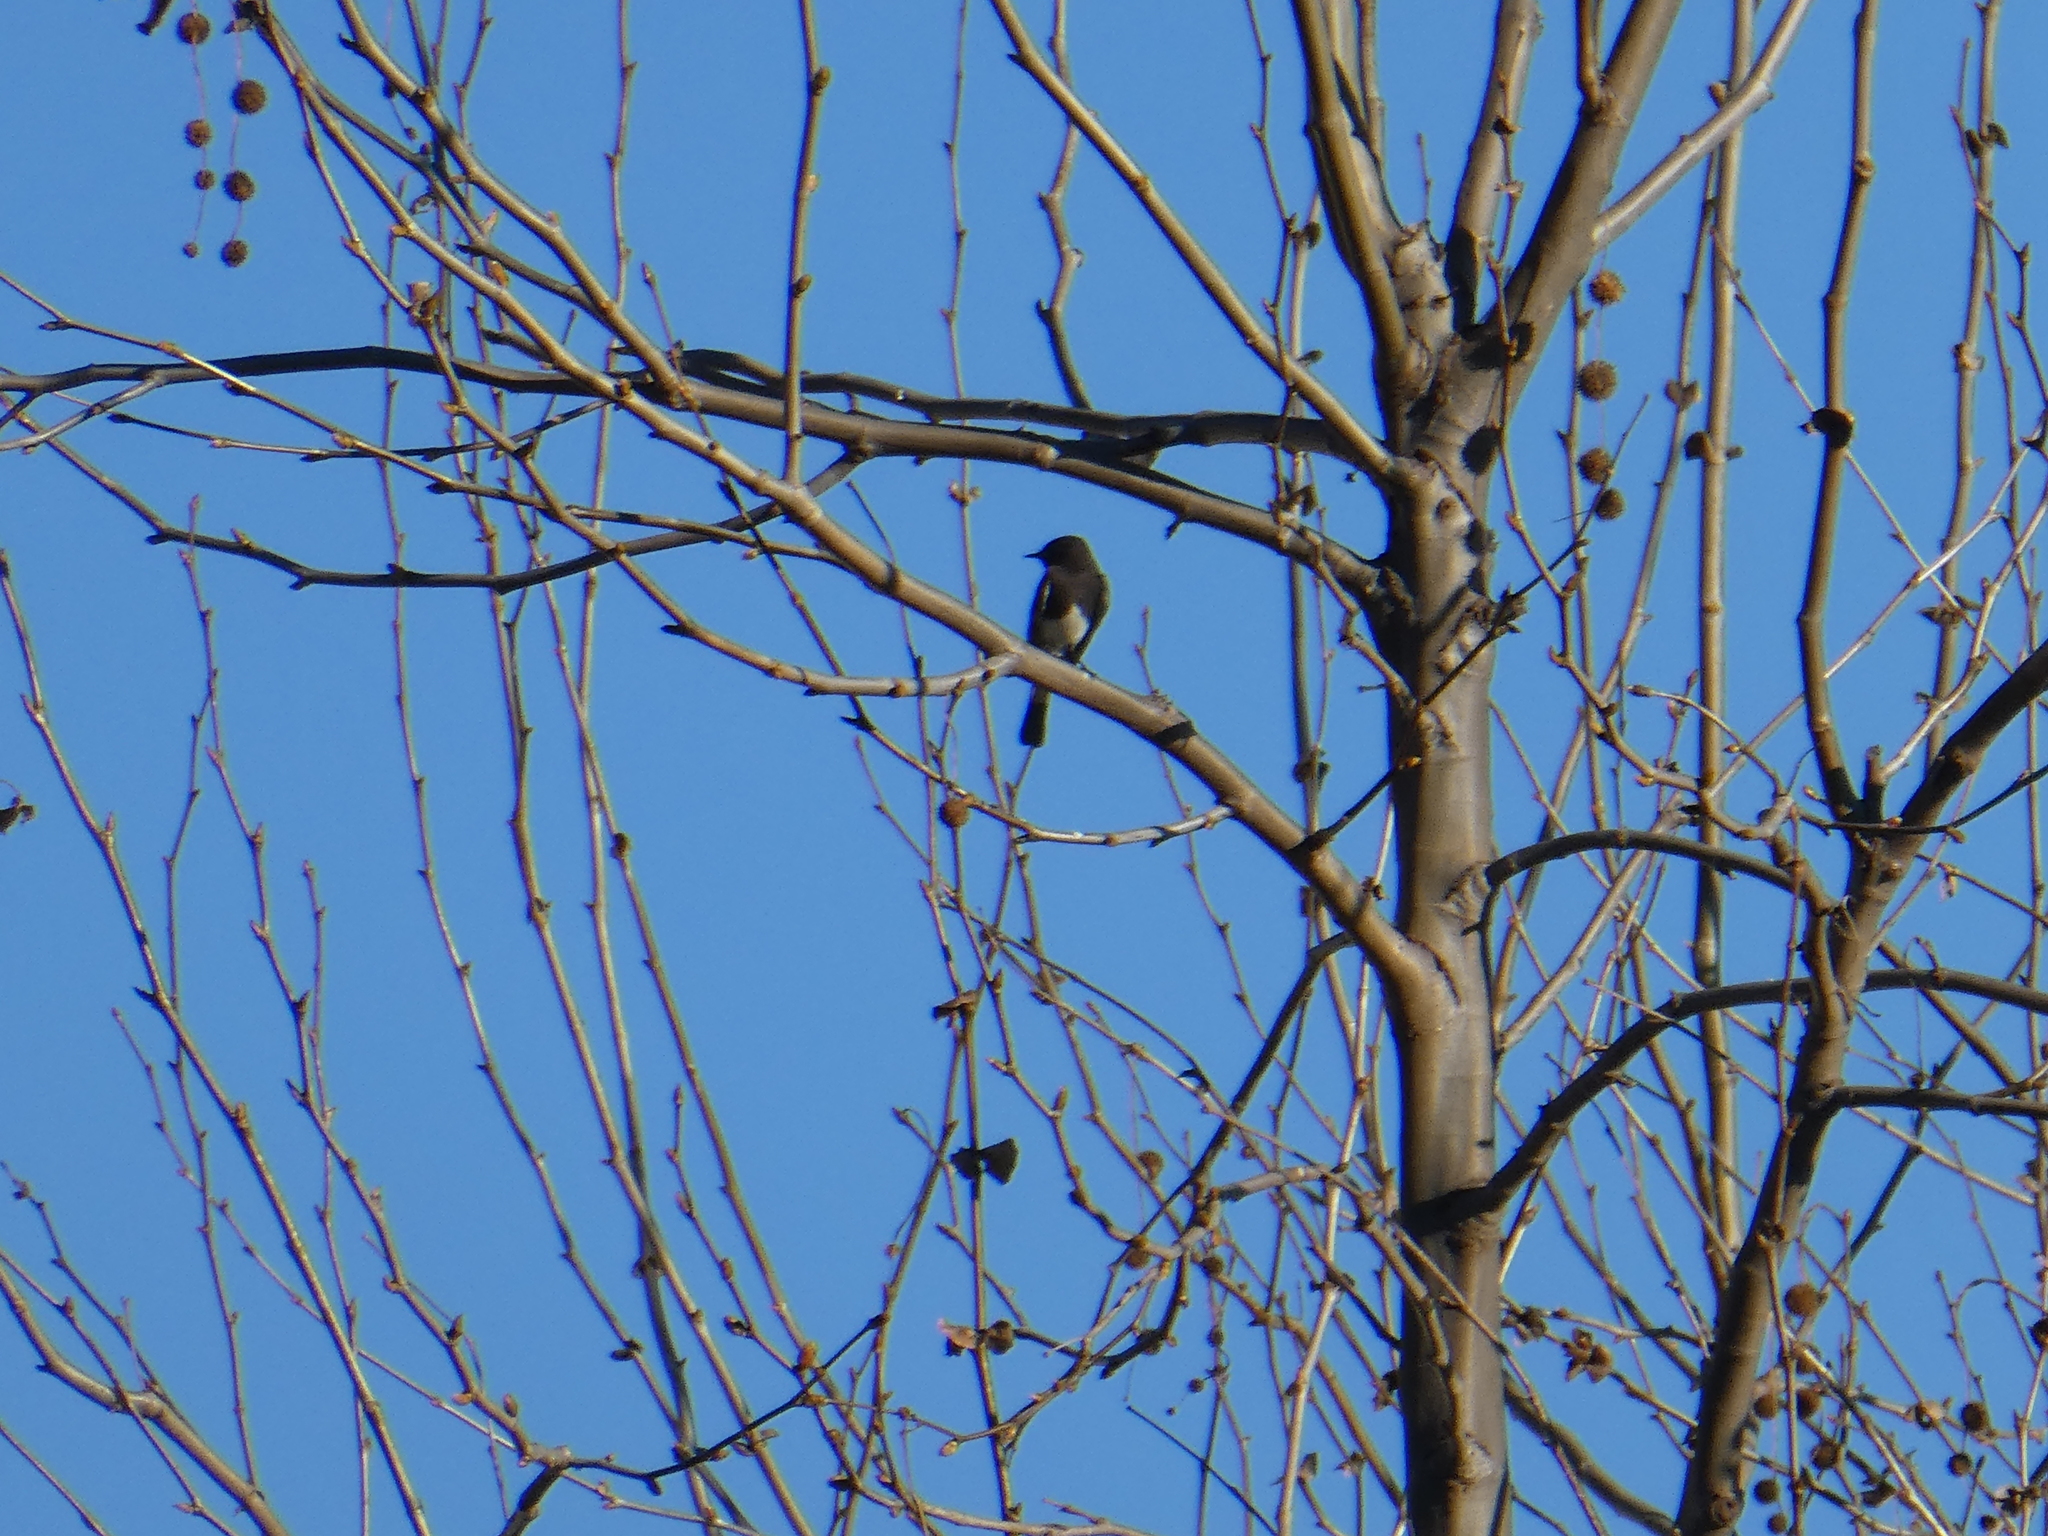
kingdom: Animalia
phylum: Chordata
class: Aves
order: Passeriformes
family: Tyrannidae
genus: Sayornis
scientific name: Sayornis nigricans
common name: Black phoebe
